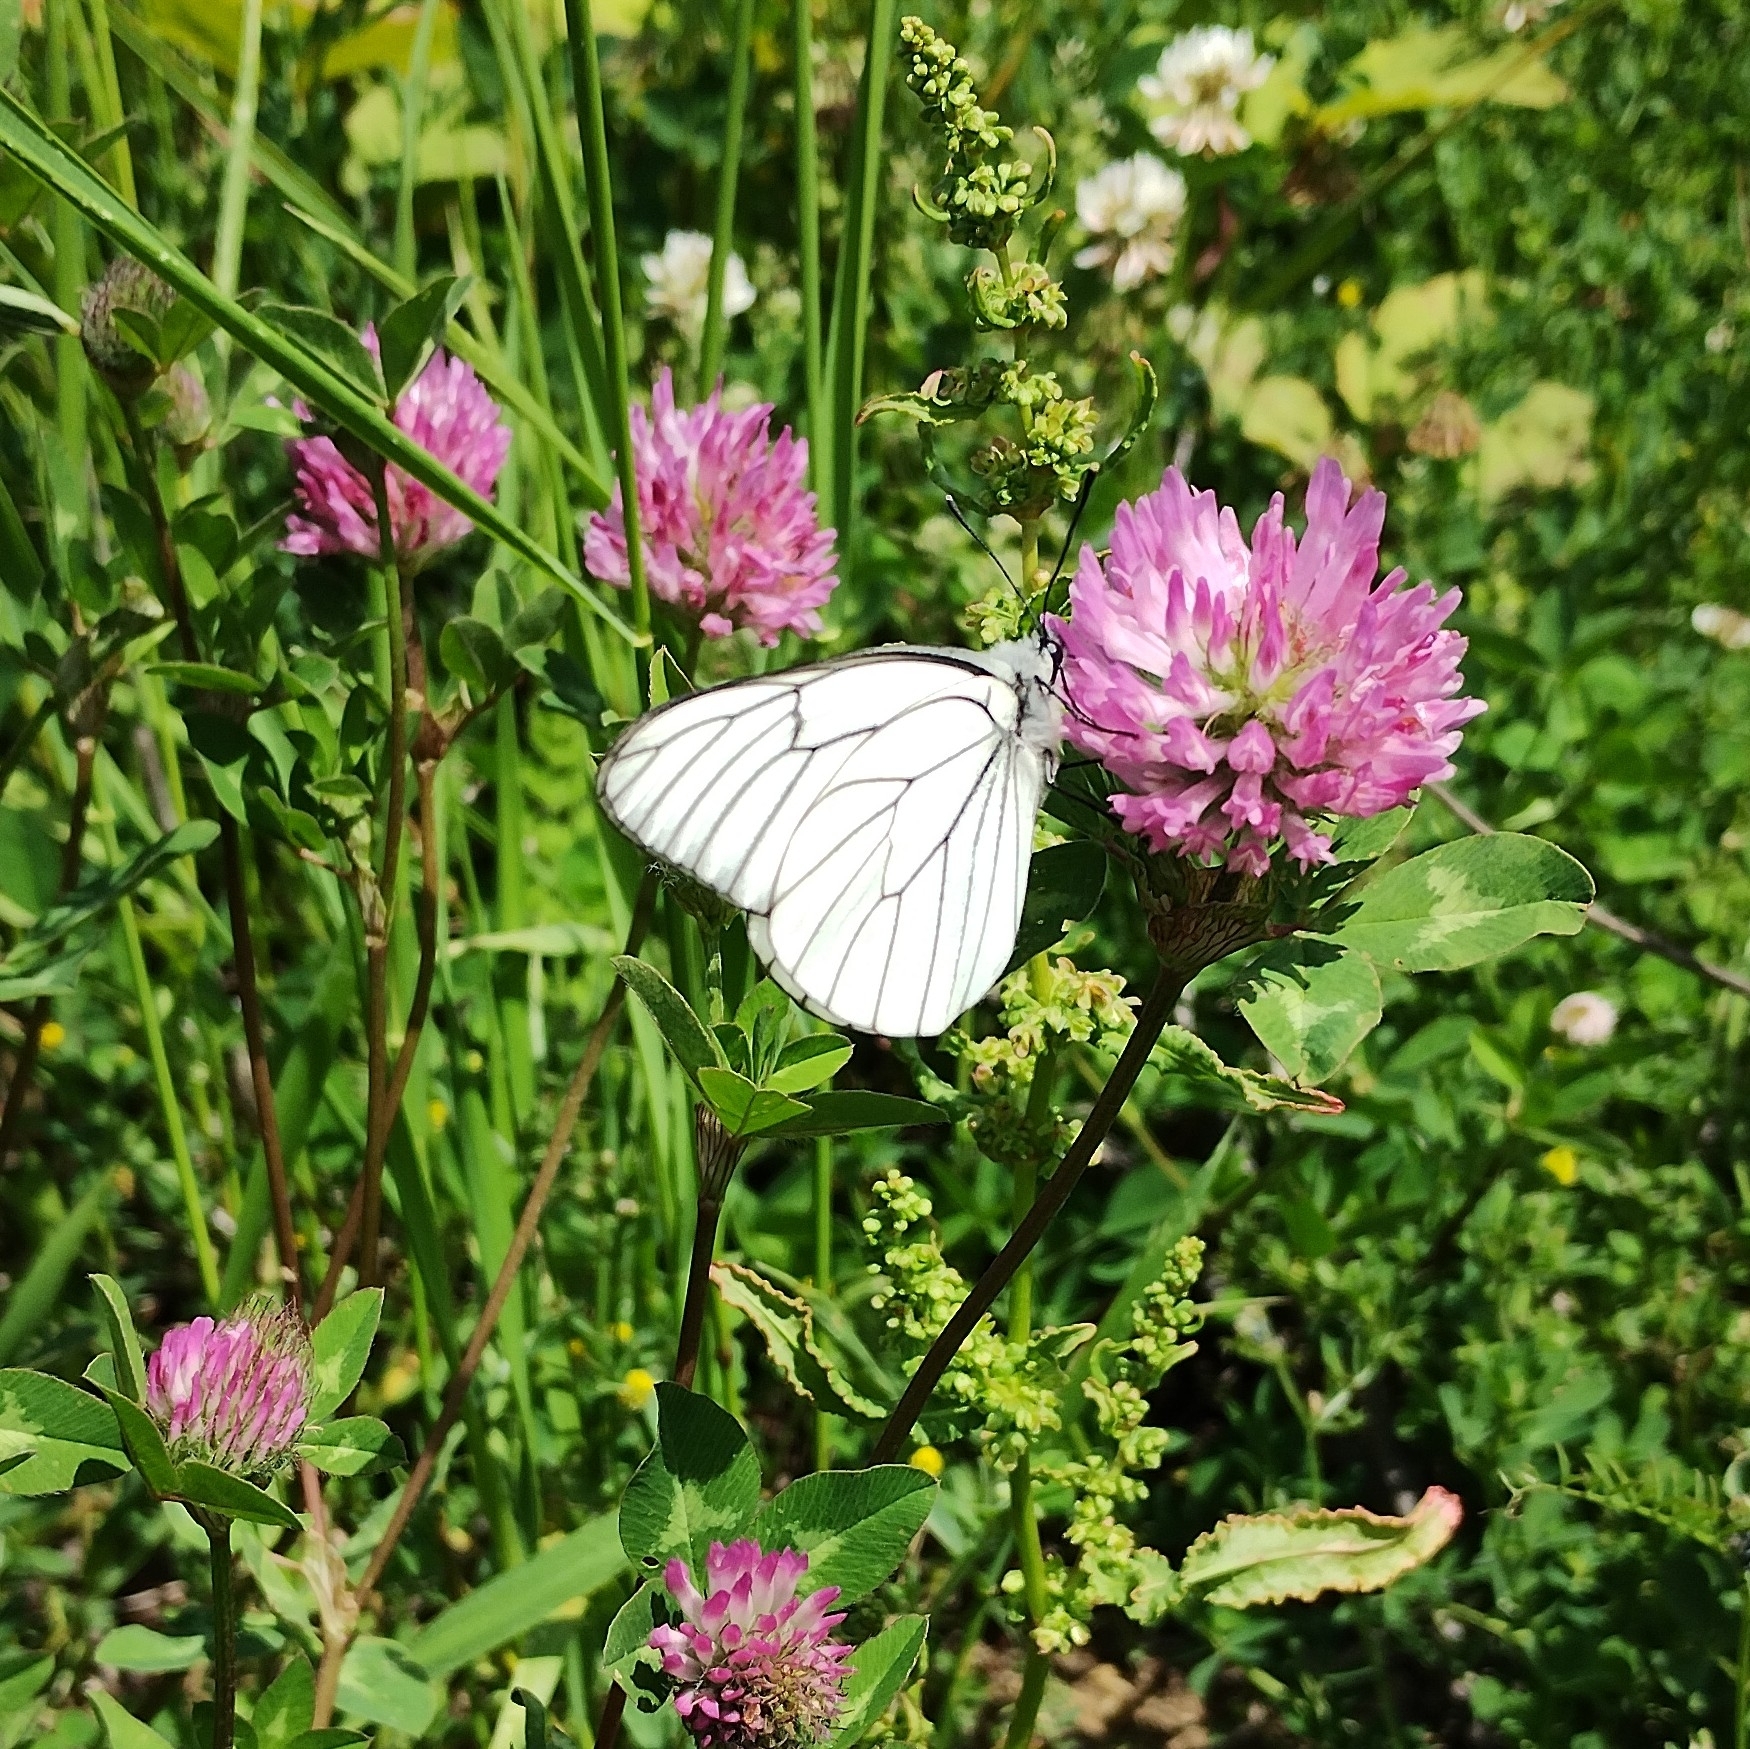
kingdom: Animalia
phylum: Arthropoda
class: Insecta
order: Lepidoptera
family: Pieridae
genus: Aporia
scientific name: Aporia crataegi
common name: Black-veined white
